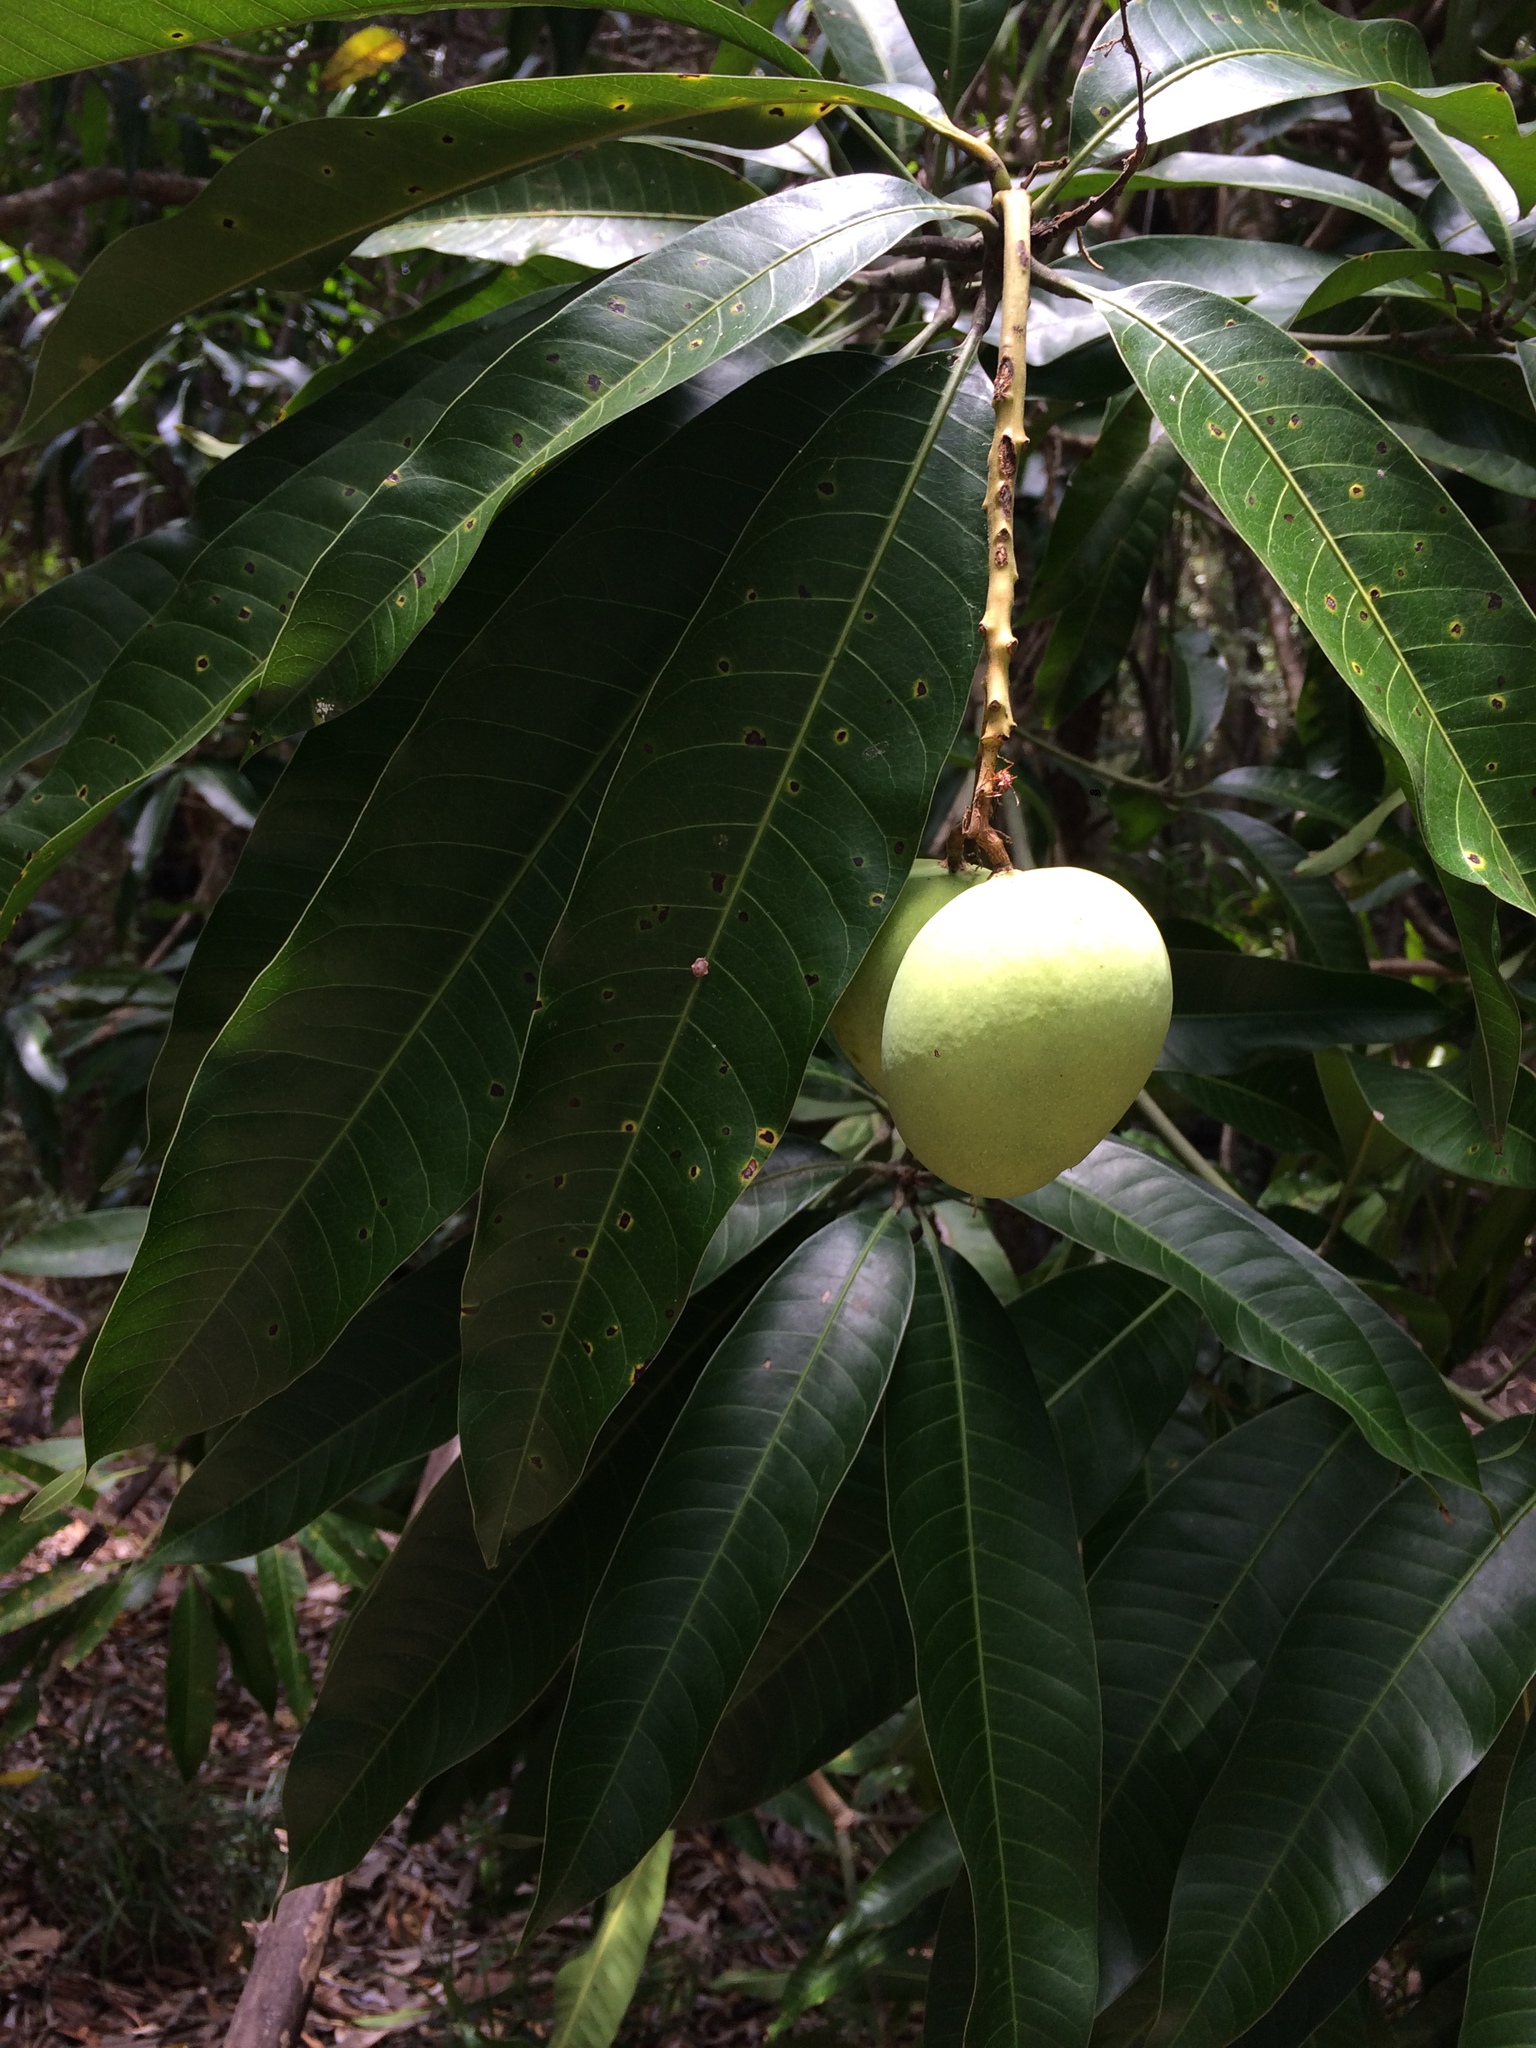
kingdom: Plantae
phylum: Tracheophyta
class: Magnoliopsida
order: Sapindales
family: Anacardiaceae
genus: Mangifera
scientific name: Mangifera indica
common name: Mango
